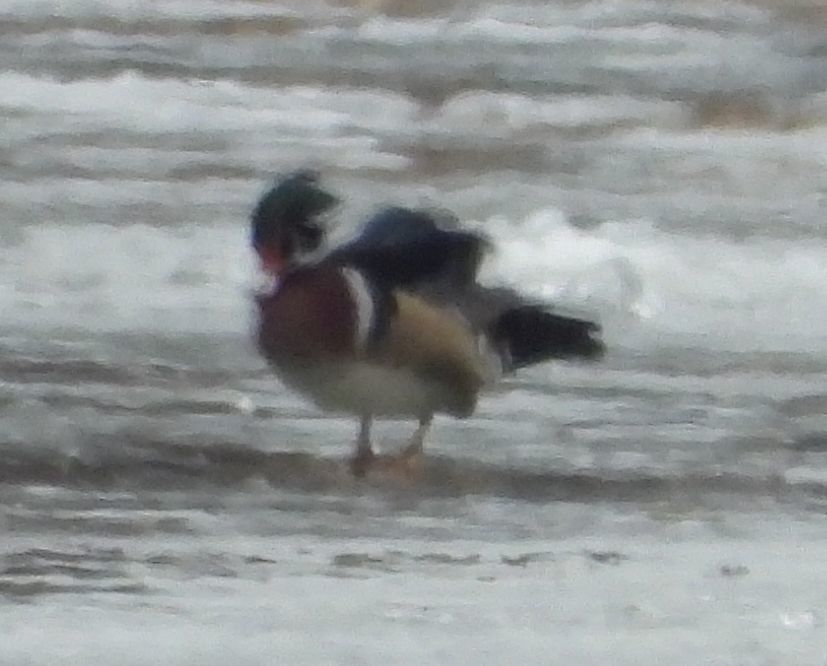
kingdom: Animalia
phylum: Chordata
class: Aves
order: Anseriformes
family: Anatidae
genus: Aix
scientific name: Aix sponsa
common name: Wood duck
